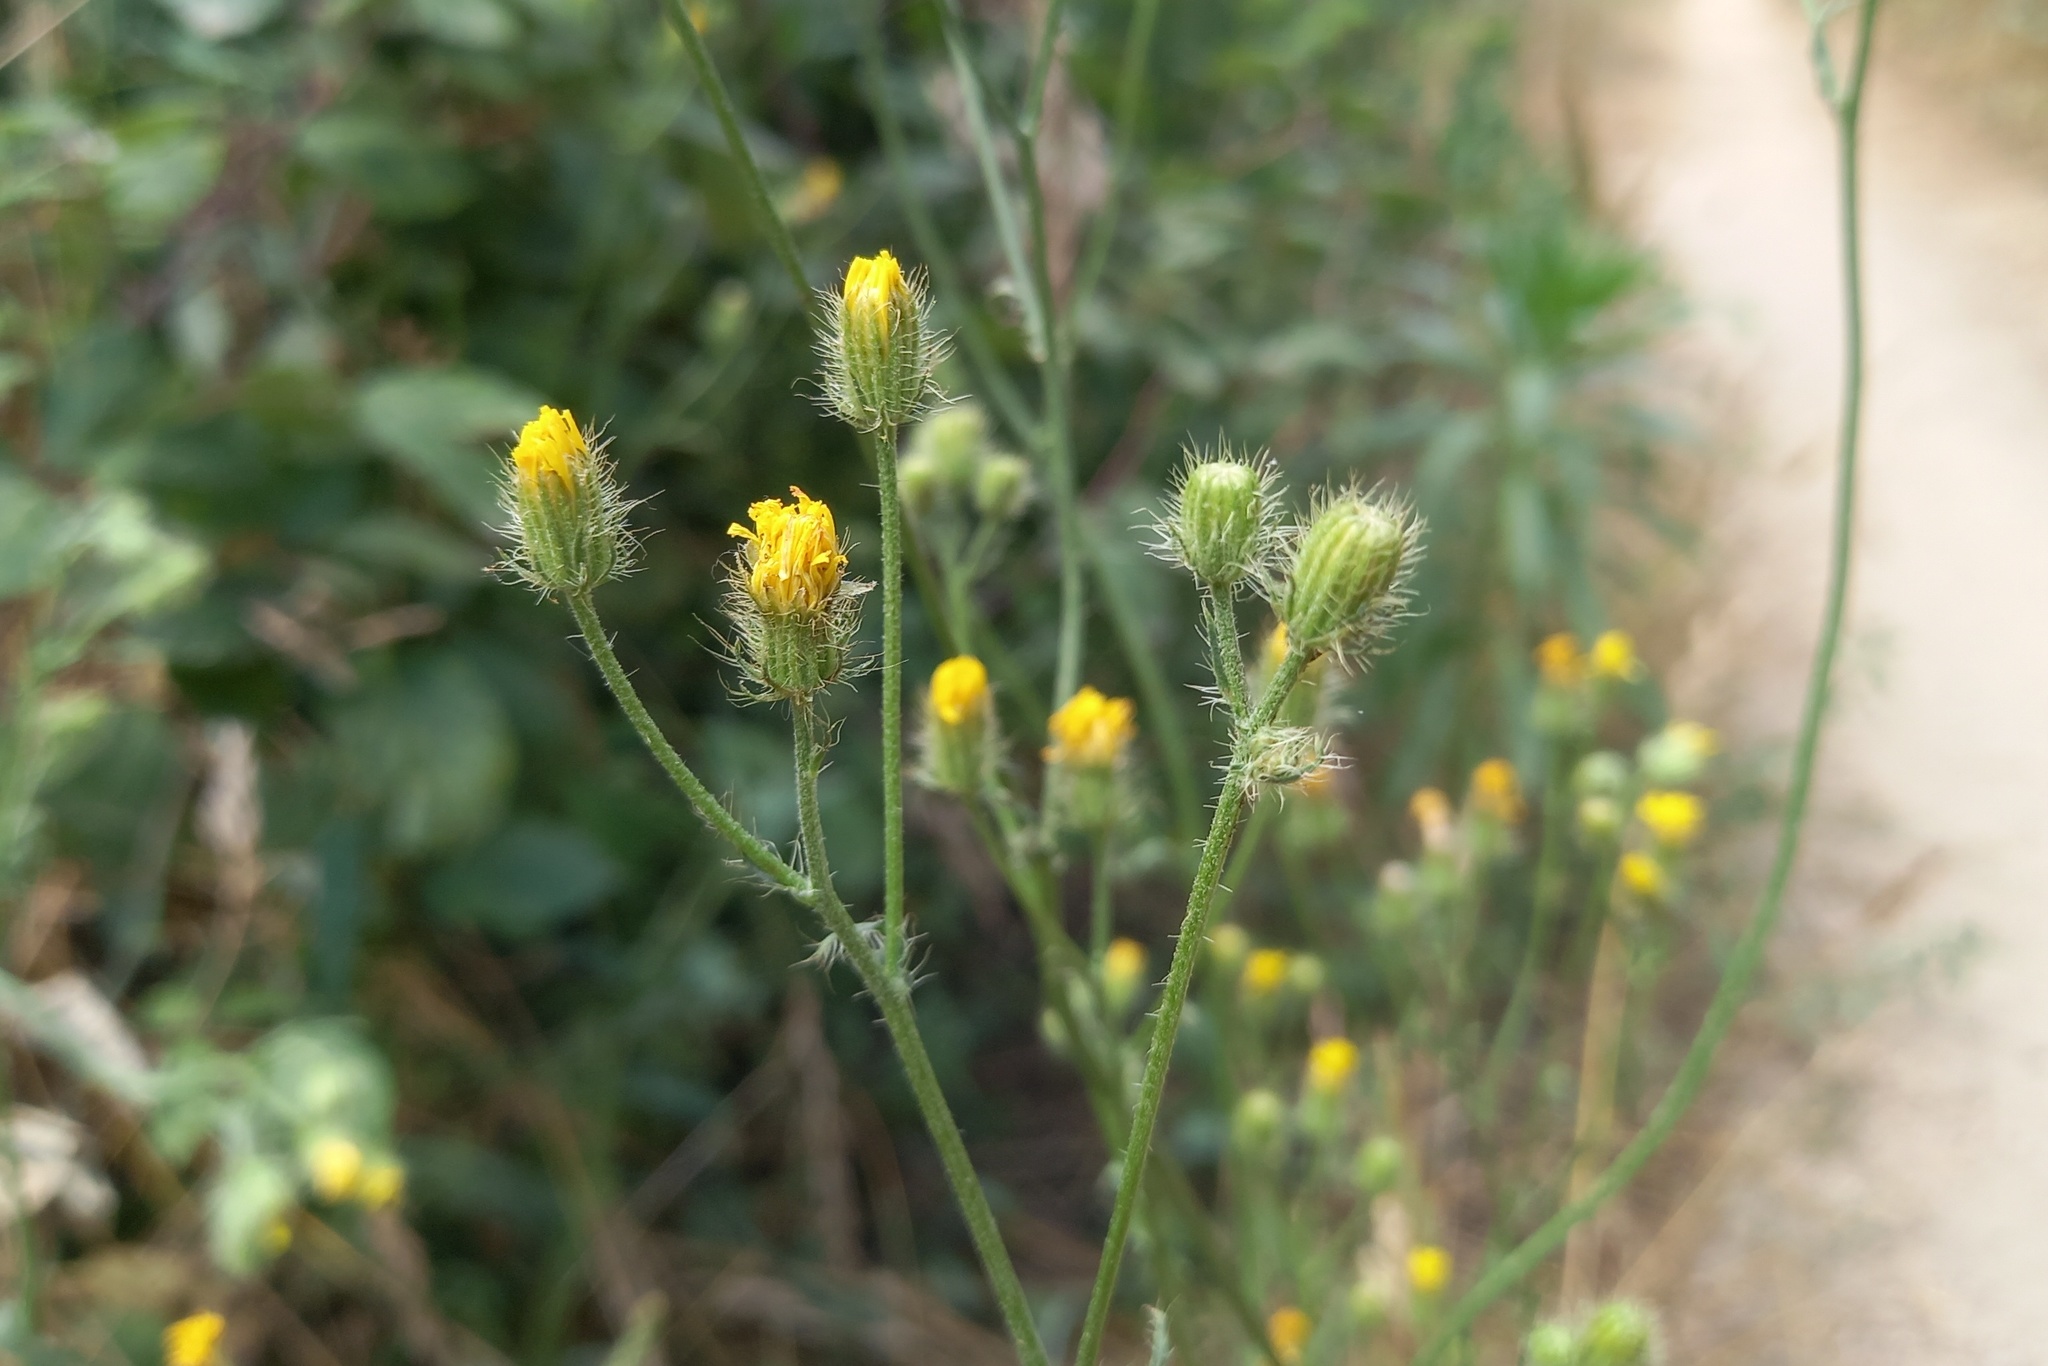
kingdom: Plantae
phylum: Tracheophyta
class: Magnoliopsida
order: Asterales
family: Asteraceae
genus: Crepis
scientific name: Crepis setosa
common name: Bristly hawk's-beard
